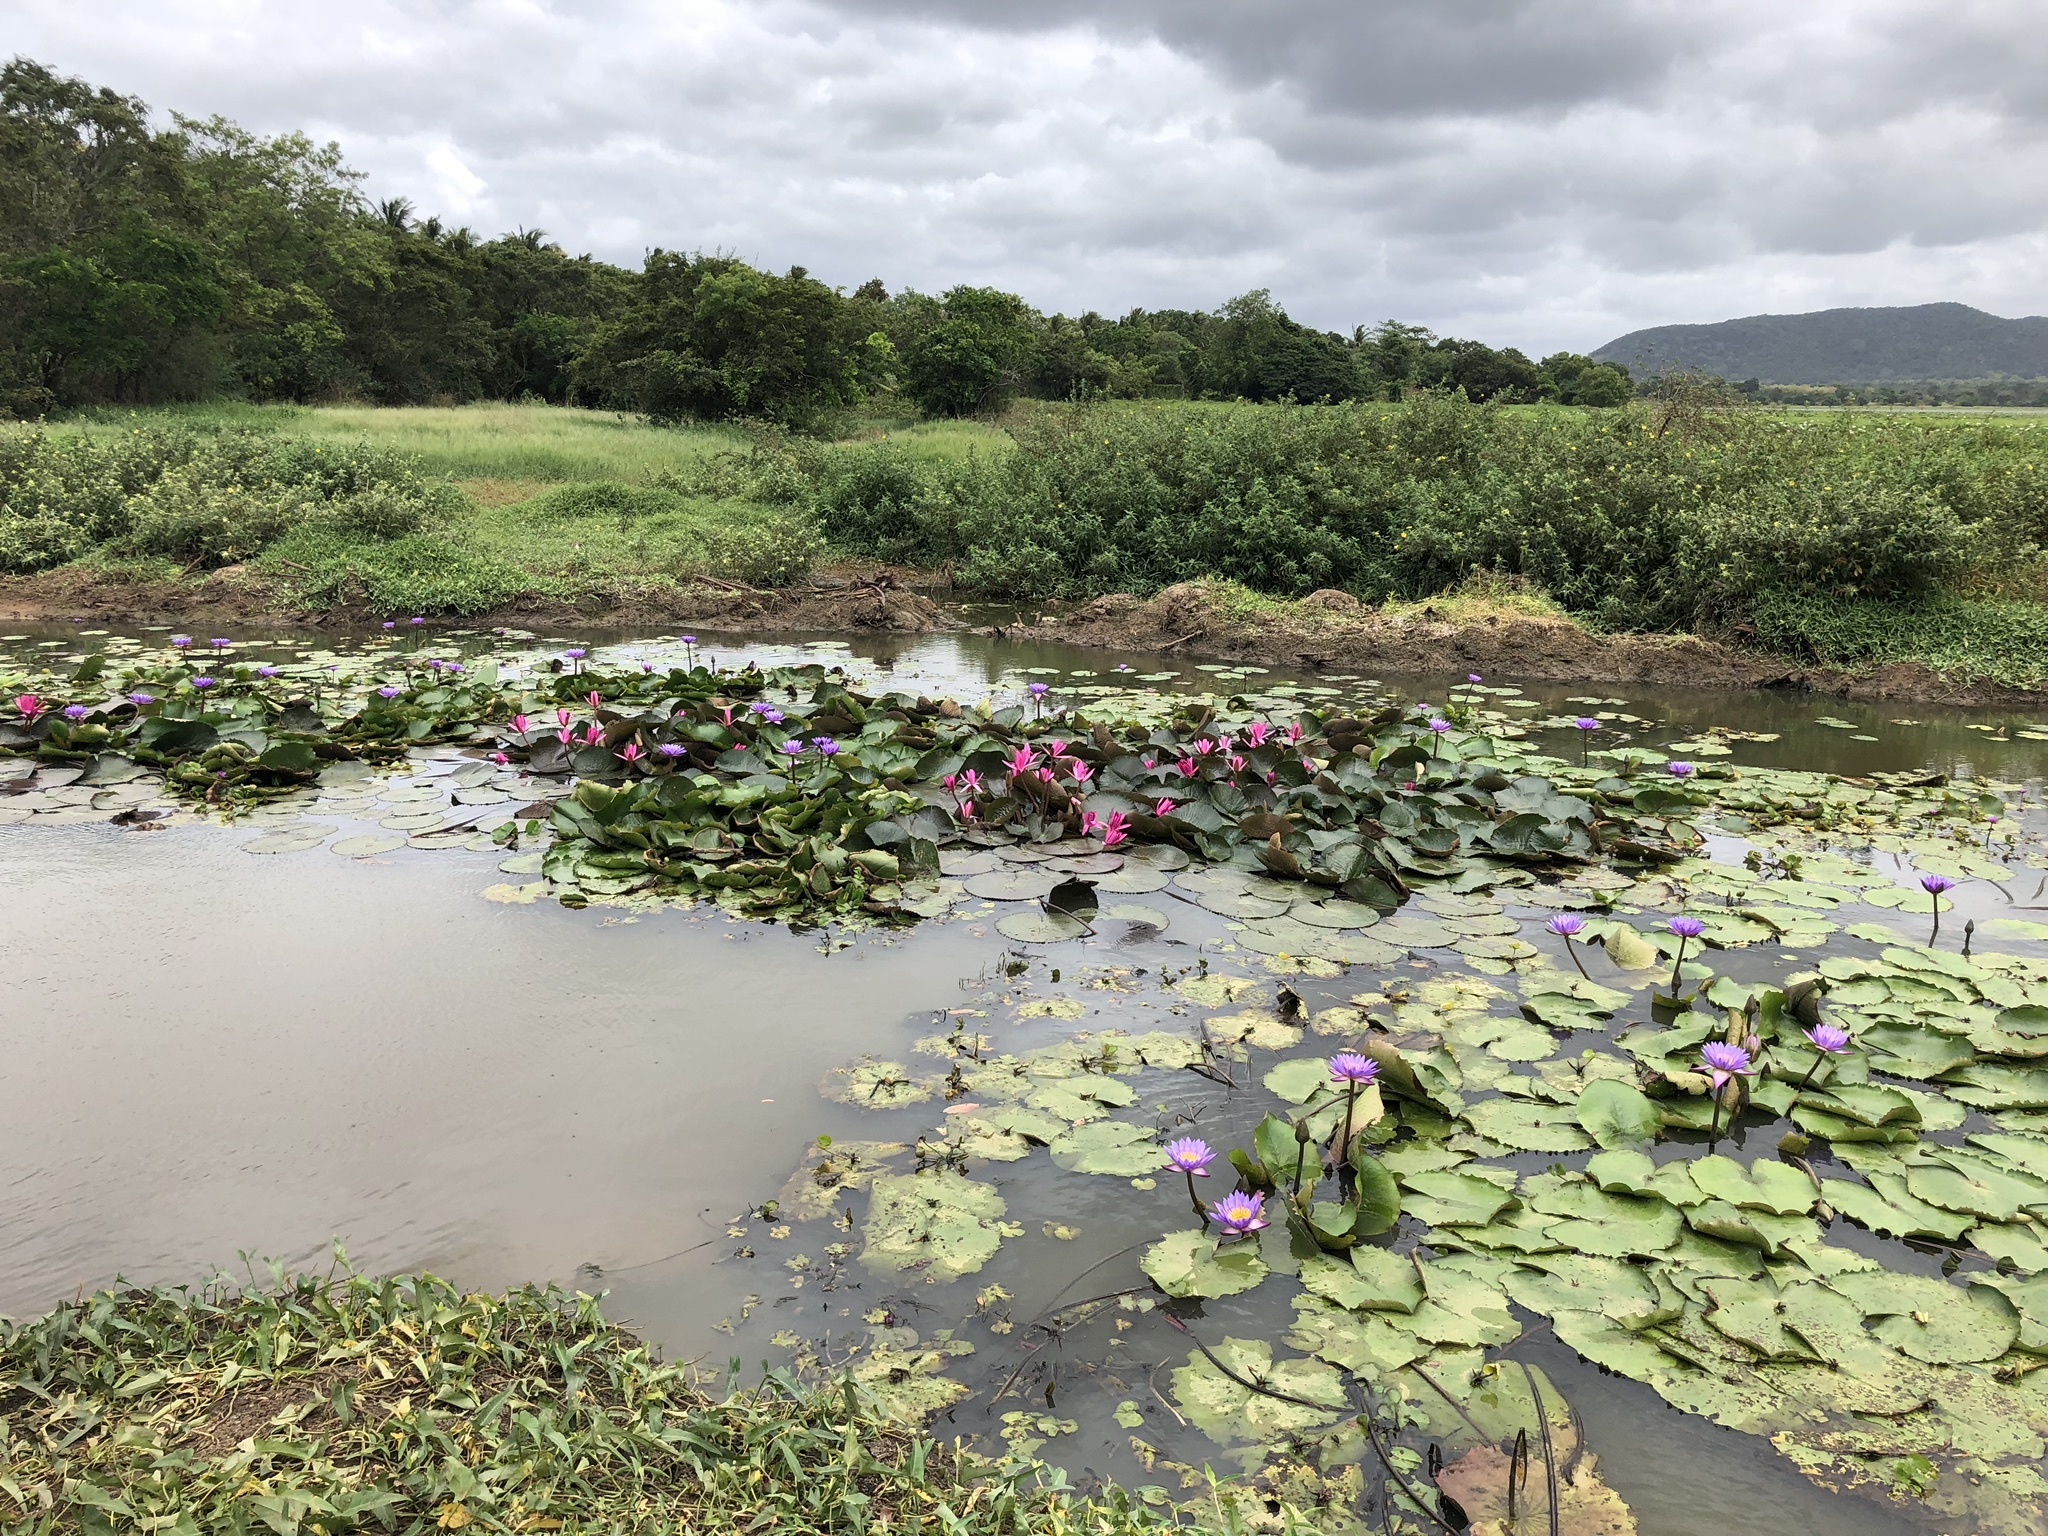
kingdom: Plantae
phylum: Tracheophyta
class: Magnoliopsida
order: Nymphaeales
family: Nymphaeaceae
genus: Nymphaea
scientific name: Nymphaea nouchali
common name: Blue lotus
